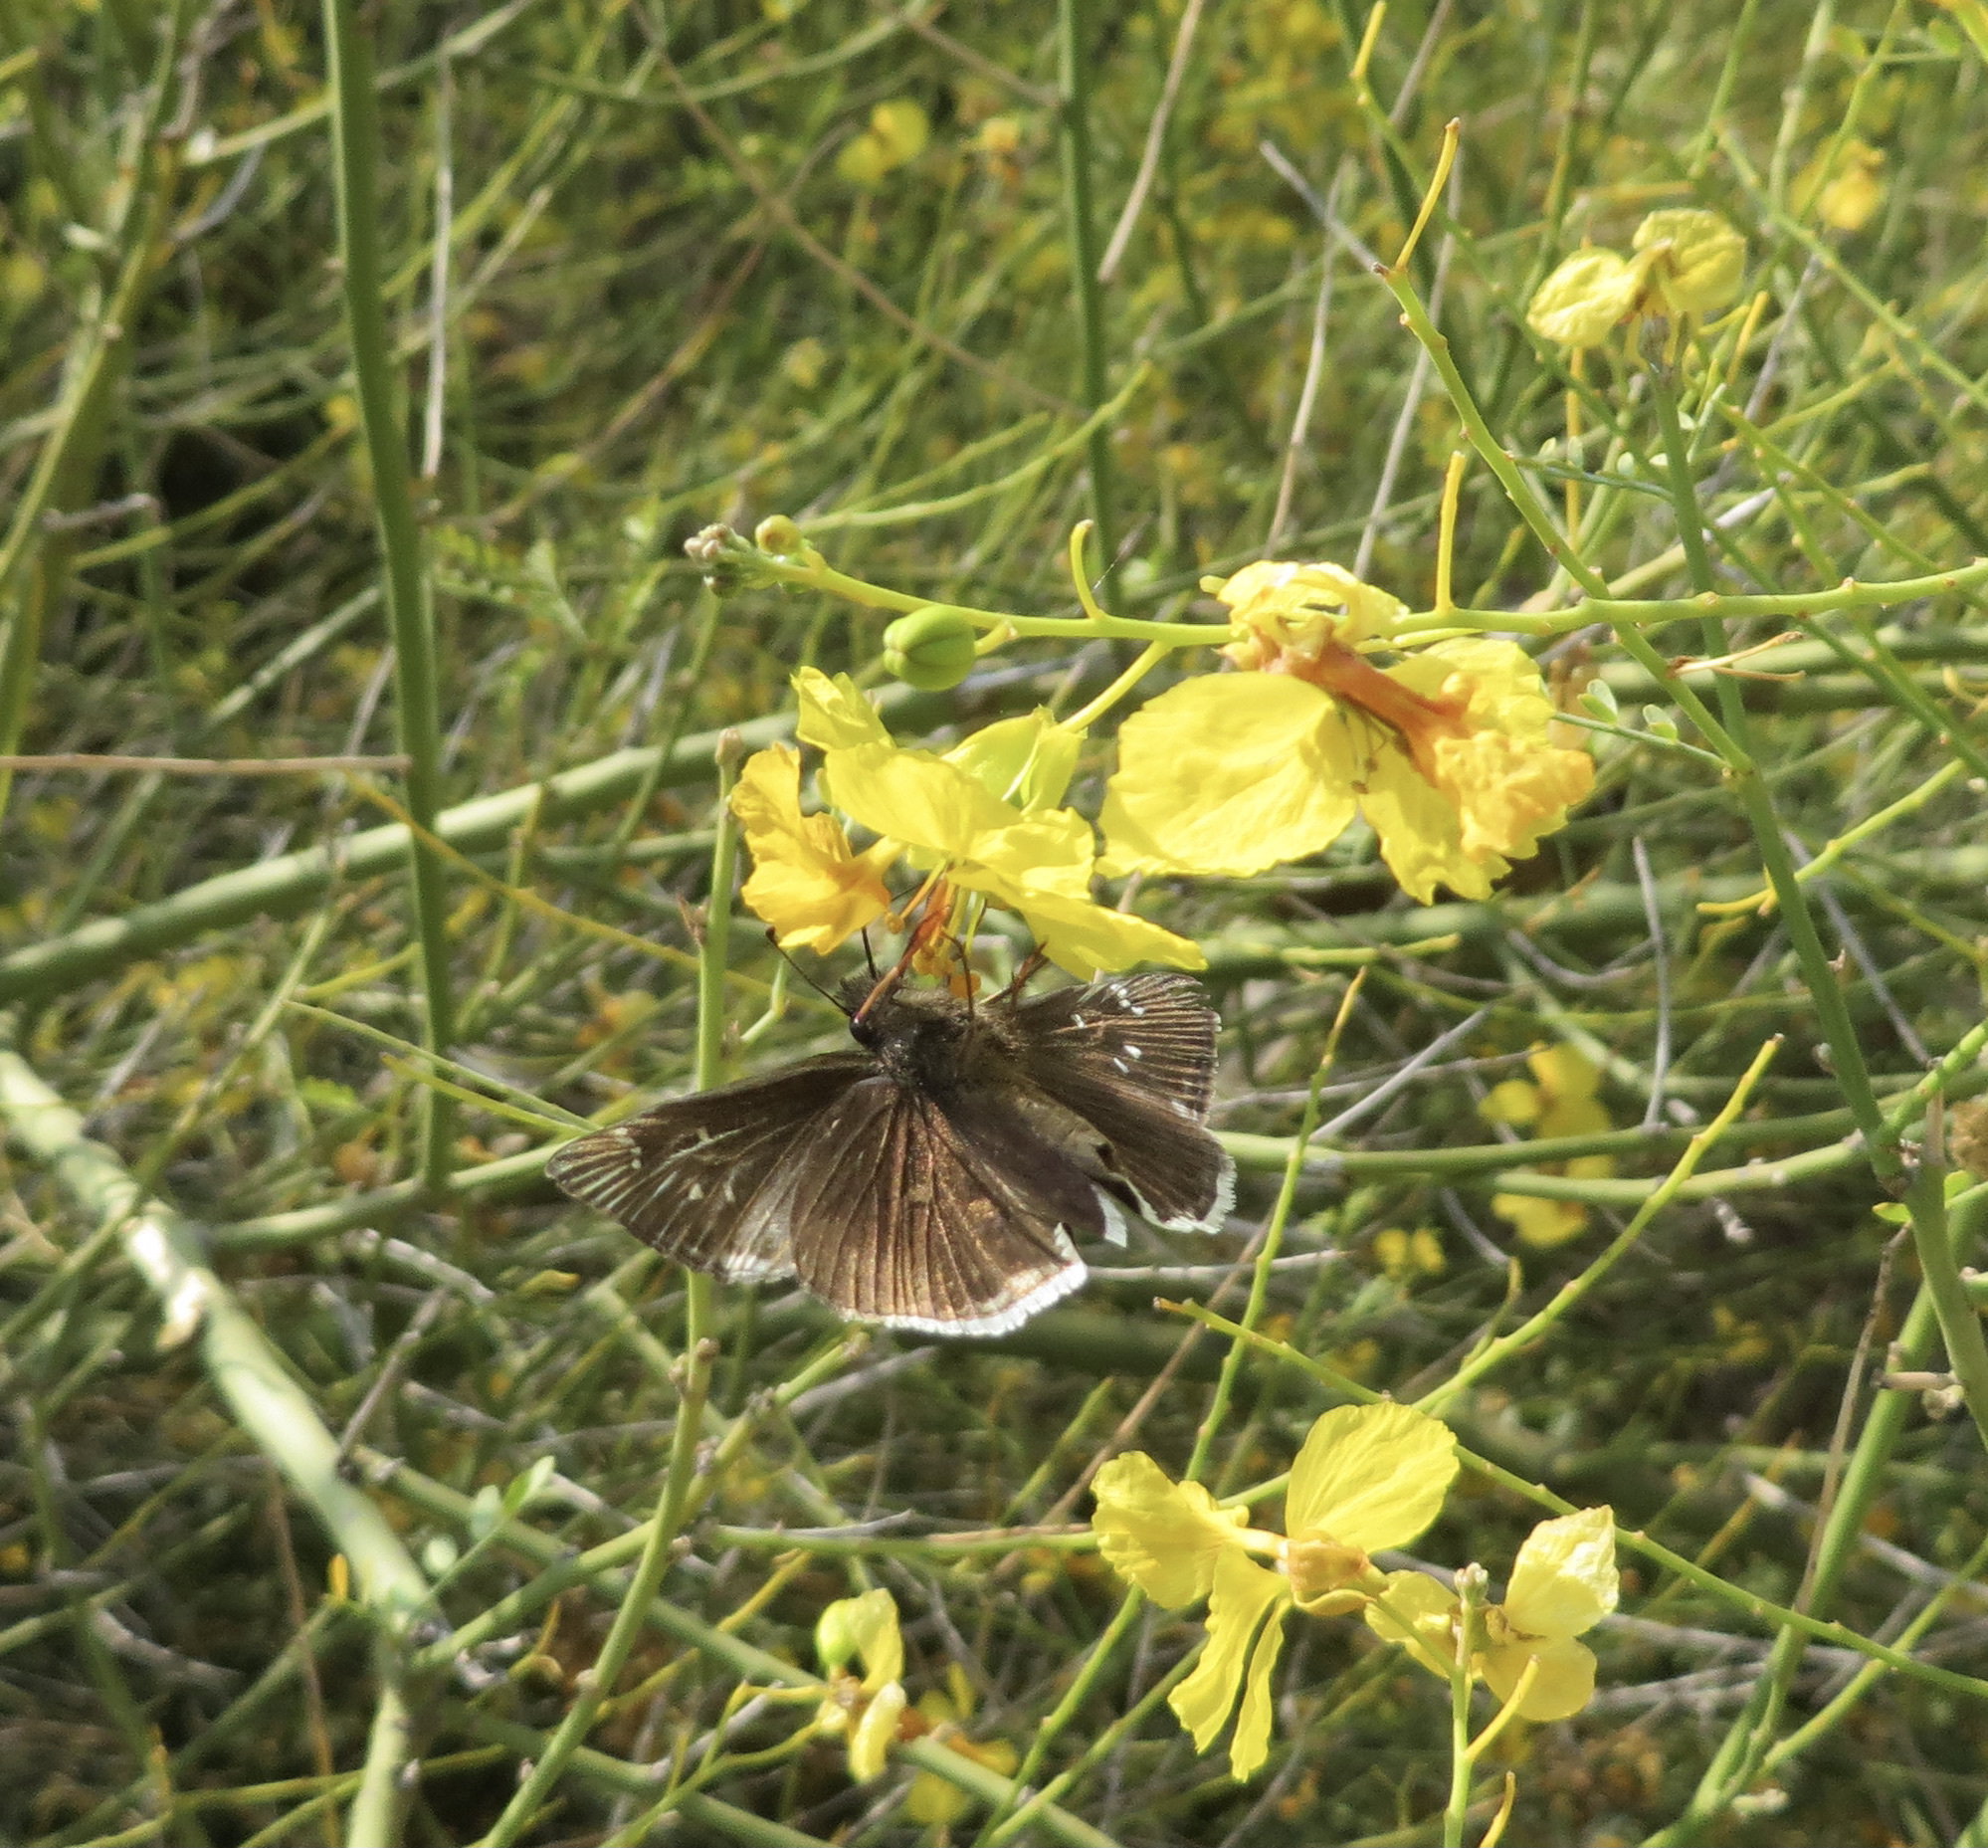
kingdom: Animalia
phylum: Arthropoda
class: Insecta
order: Lepidoptera
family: Hesperiidae
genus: Erynnis
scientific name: Erynnis tristis
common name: Mournful duskywing
